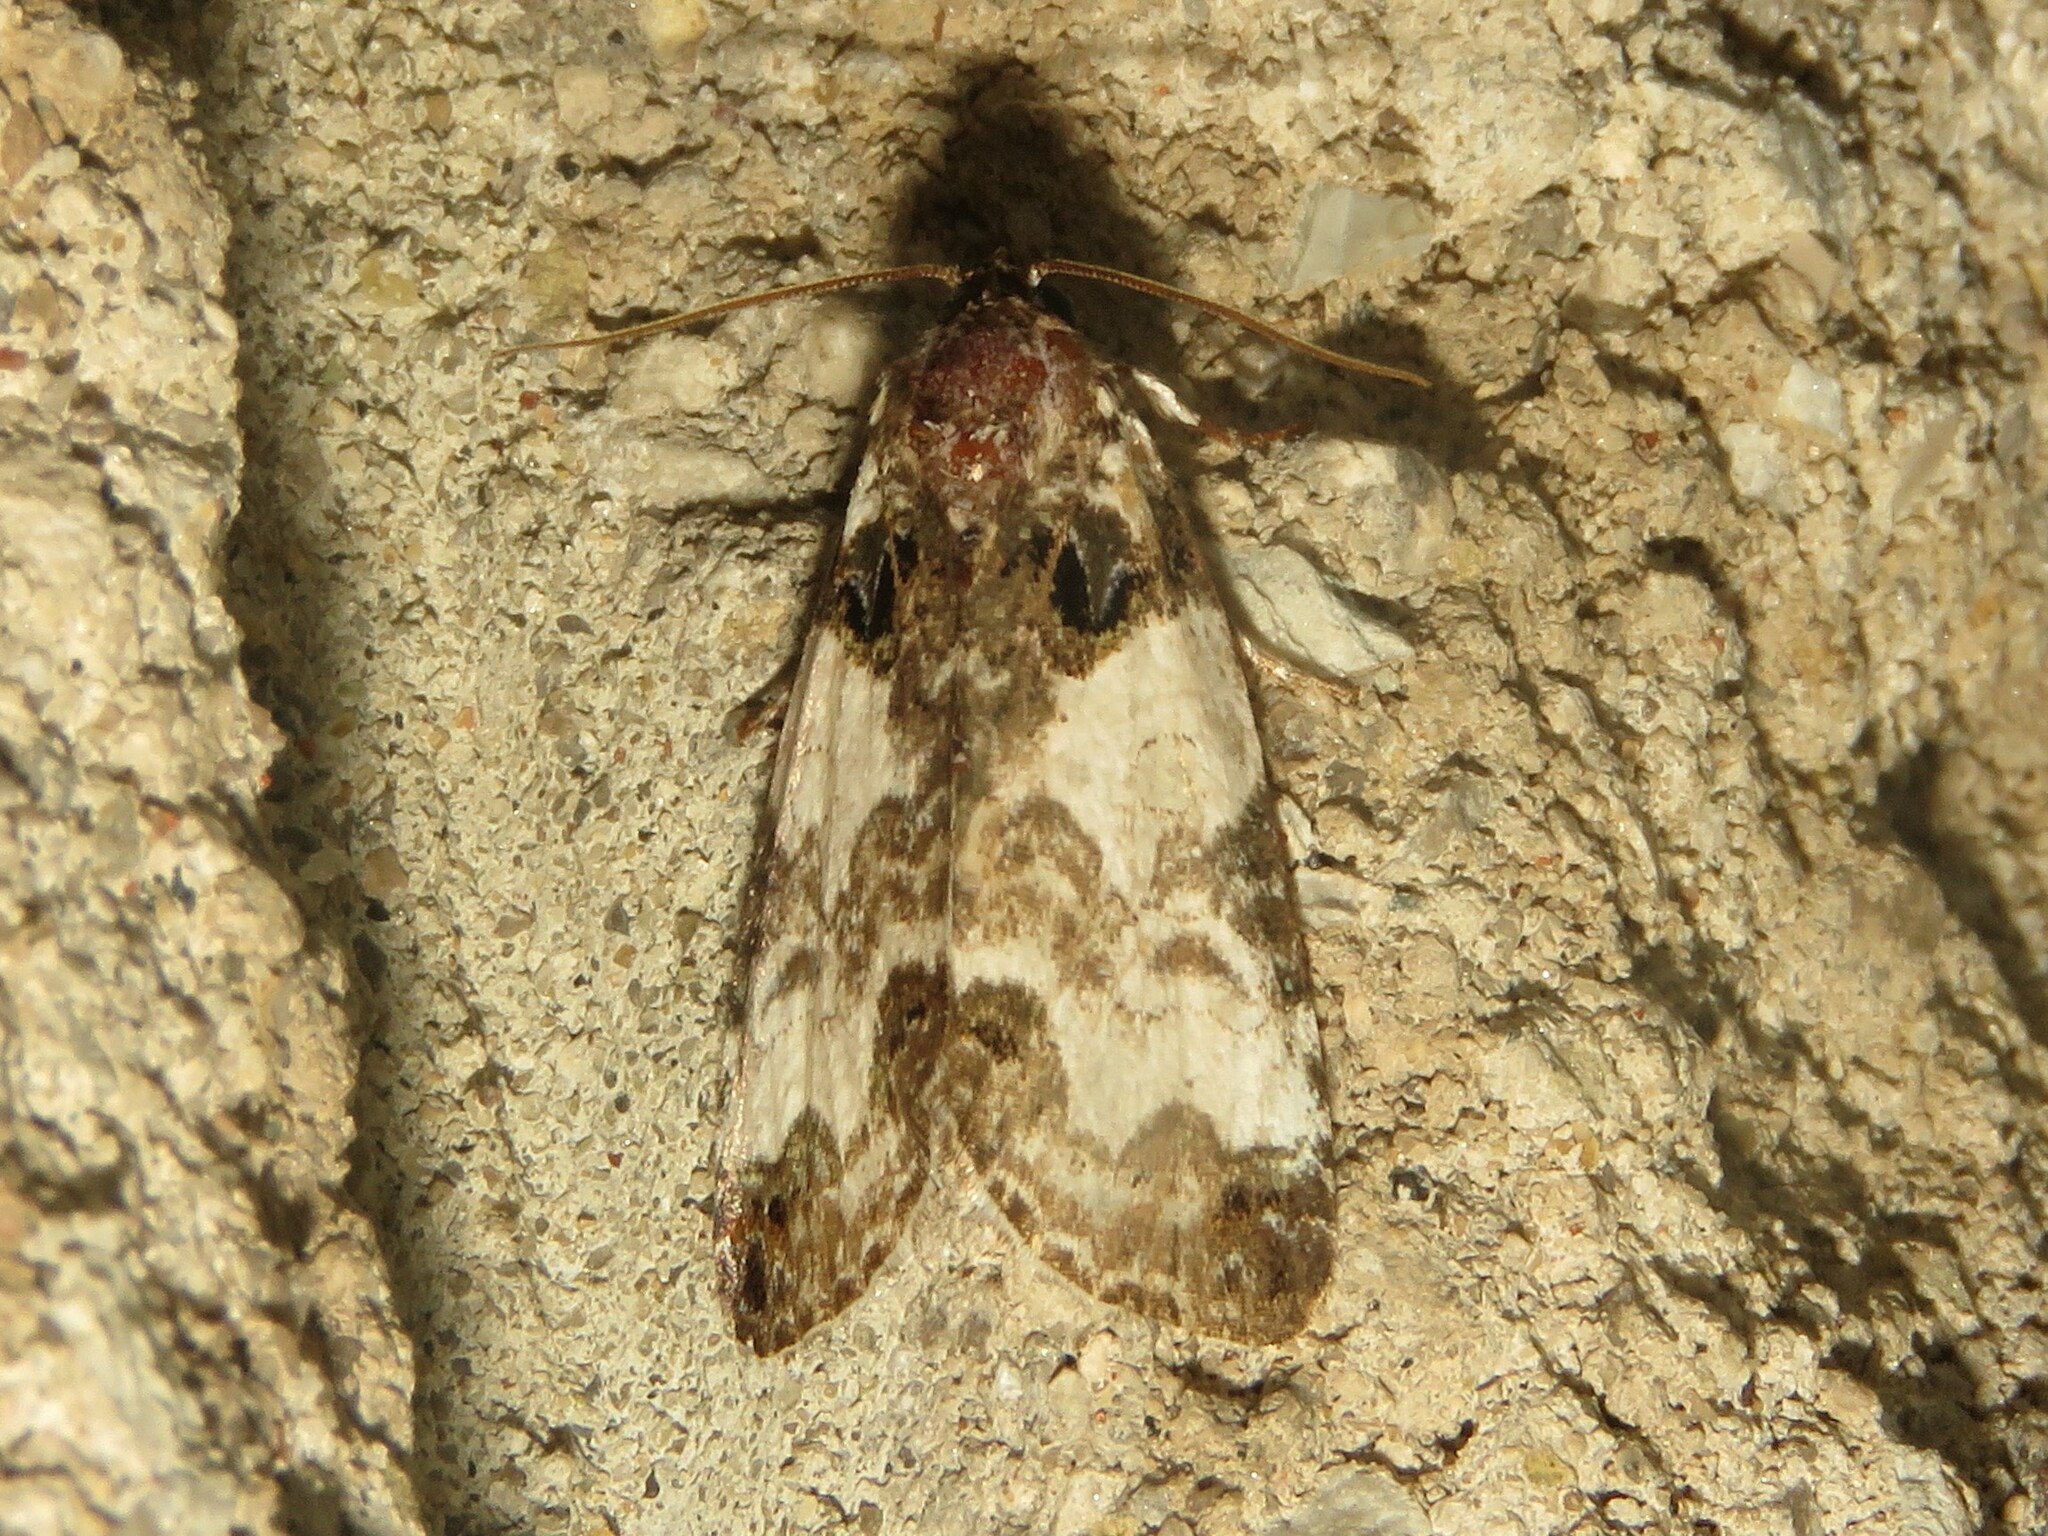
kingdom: Animalia
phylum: Arthropoda
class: Insecta
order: Lepidoptera
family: Noctuidae
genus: Cerma
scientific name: Cerma cerintha
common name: Tufted bird-dropping moth
